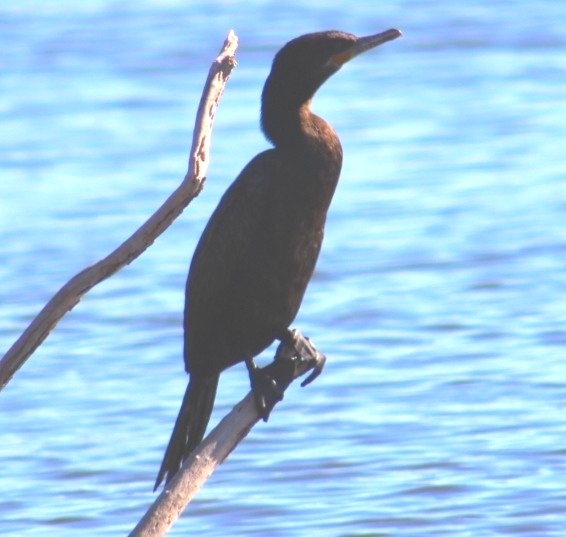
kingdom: Animalia
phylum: Chordata
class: Aves
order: Suliformes
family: Phalacrocoracidae
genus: Phalacrocorax
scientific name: Phalacrocorax brasilianus
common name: Neotropic cormorant
